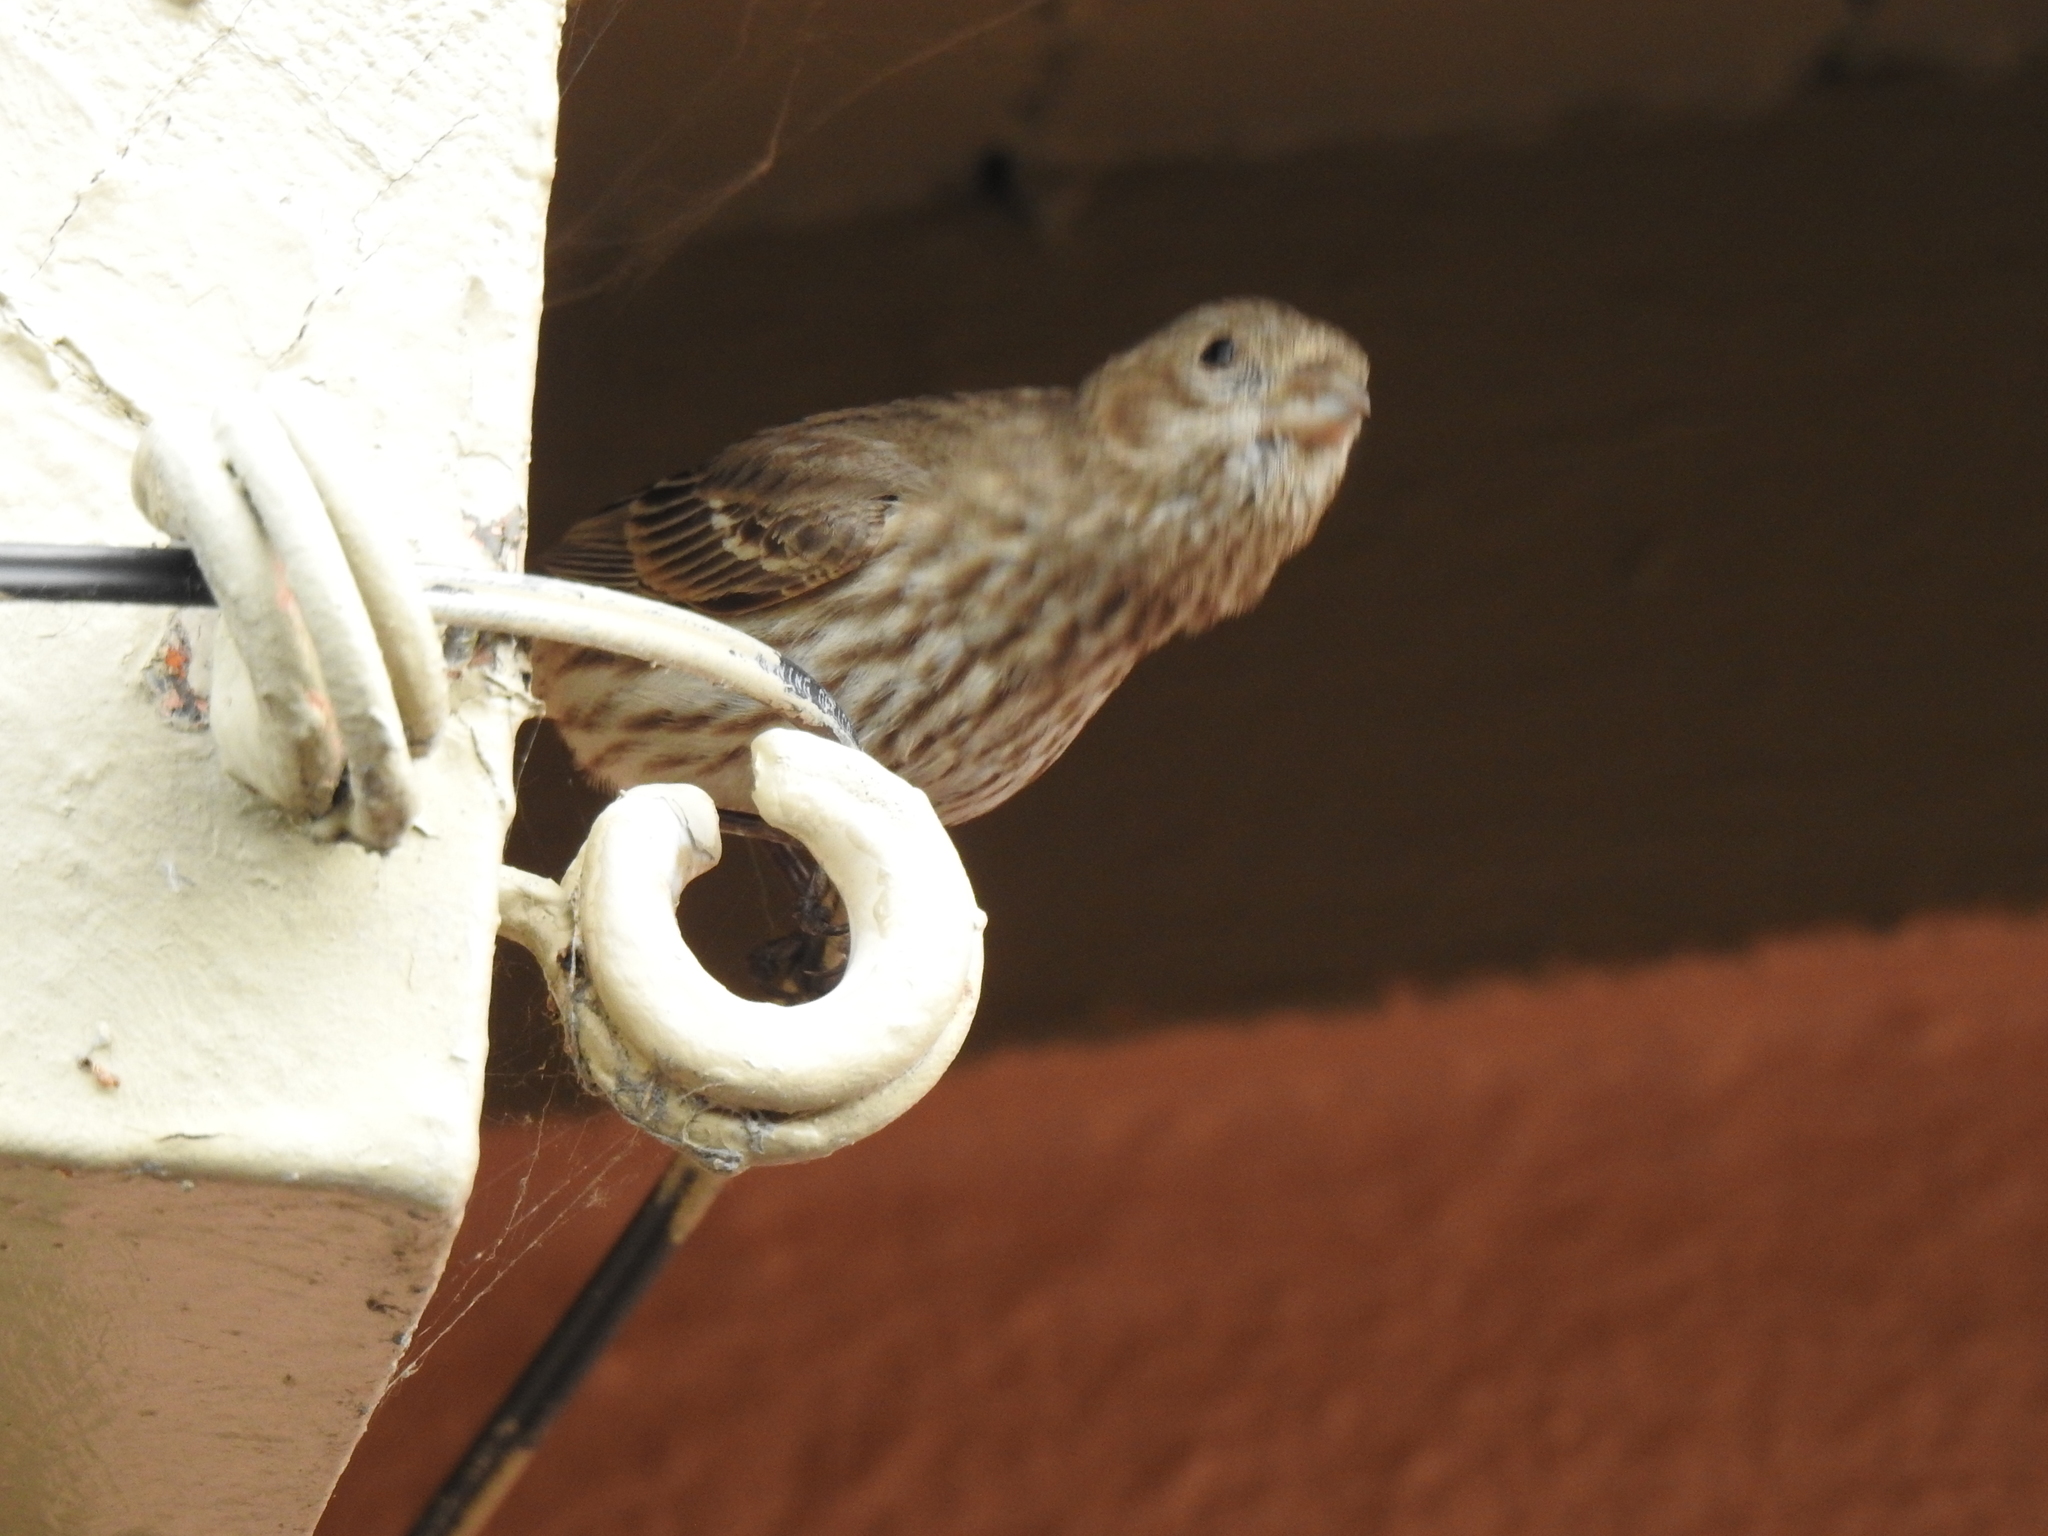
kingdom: Animalia
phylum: Chordata
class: Aves
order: Passeriformes
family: Fringillidae
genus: Haemorhous
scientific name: Haemorhous mexicanus
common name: House finch
